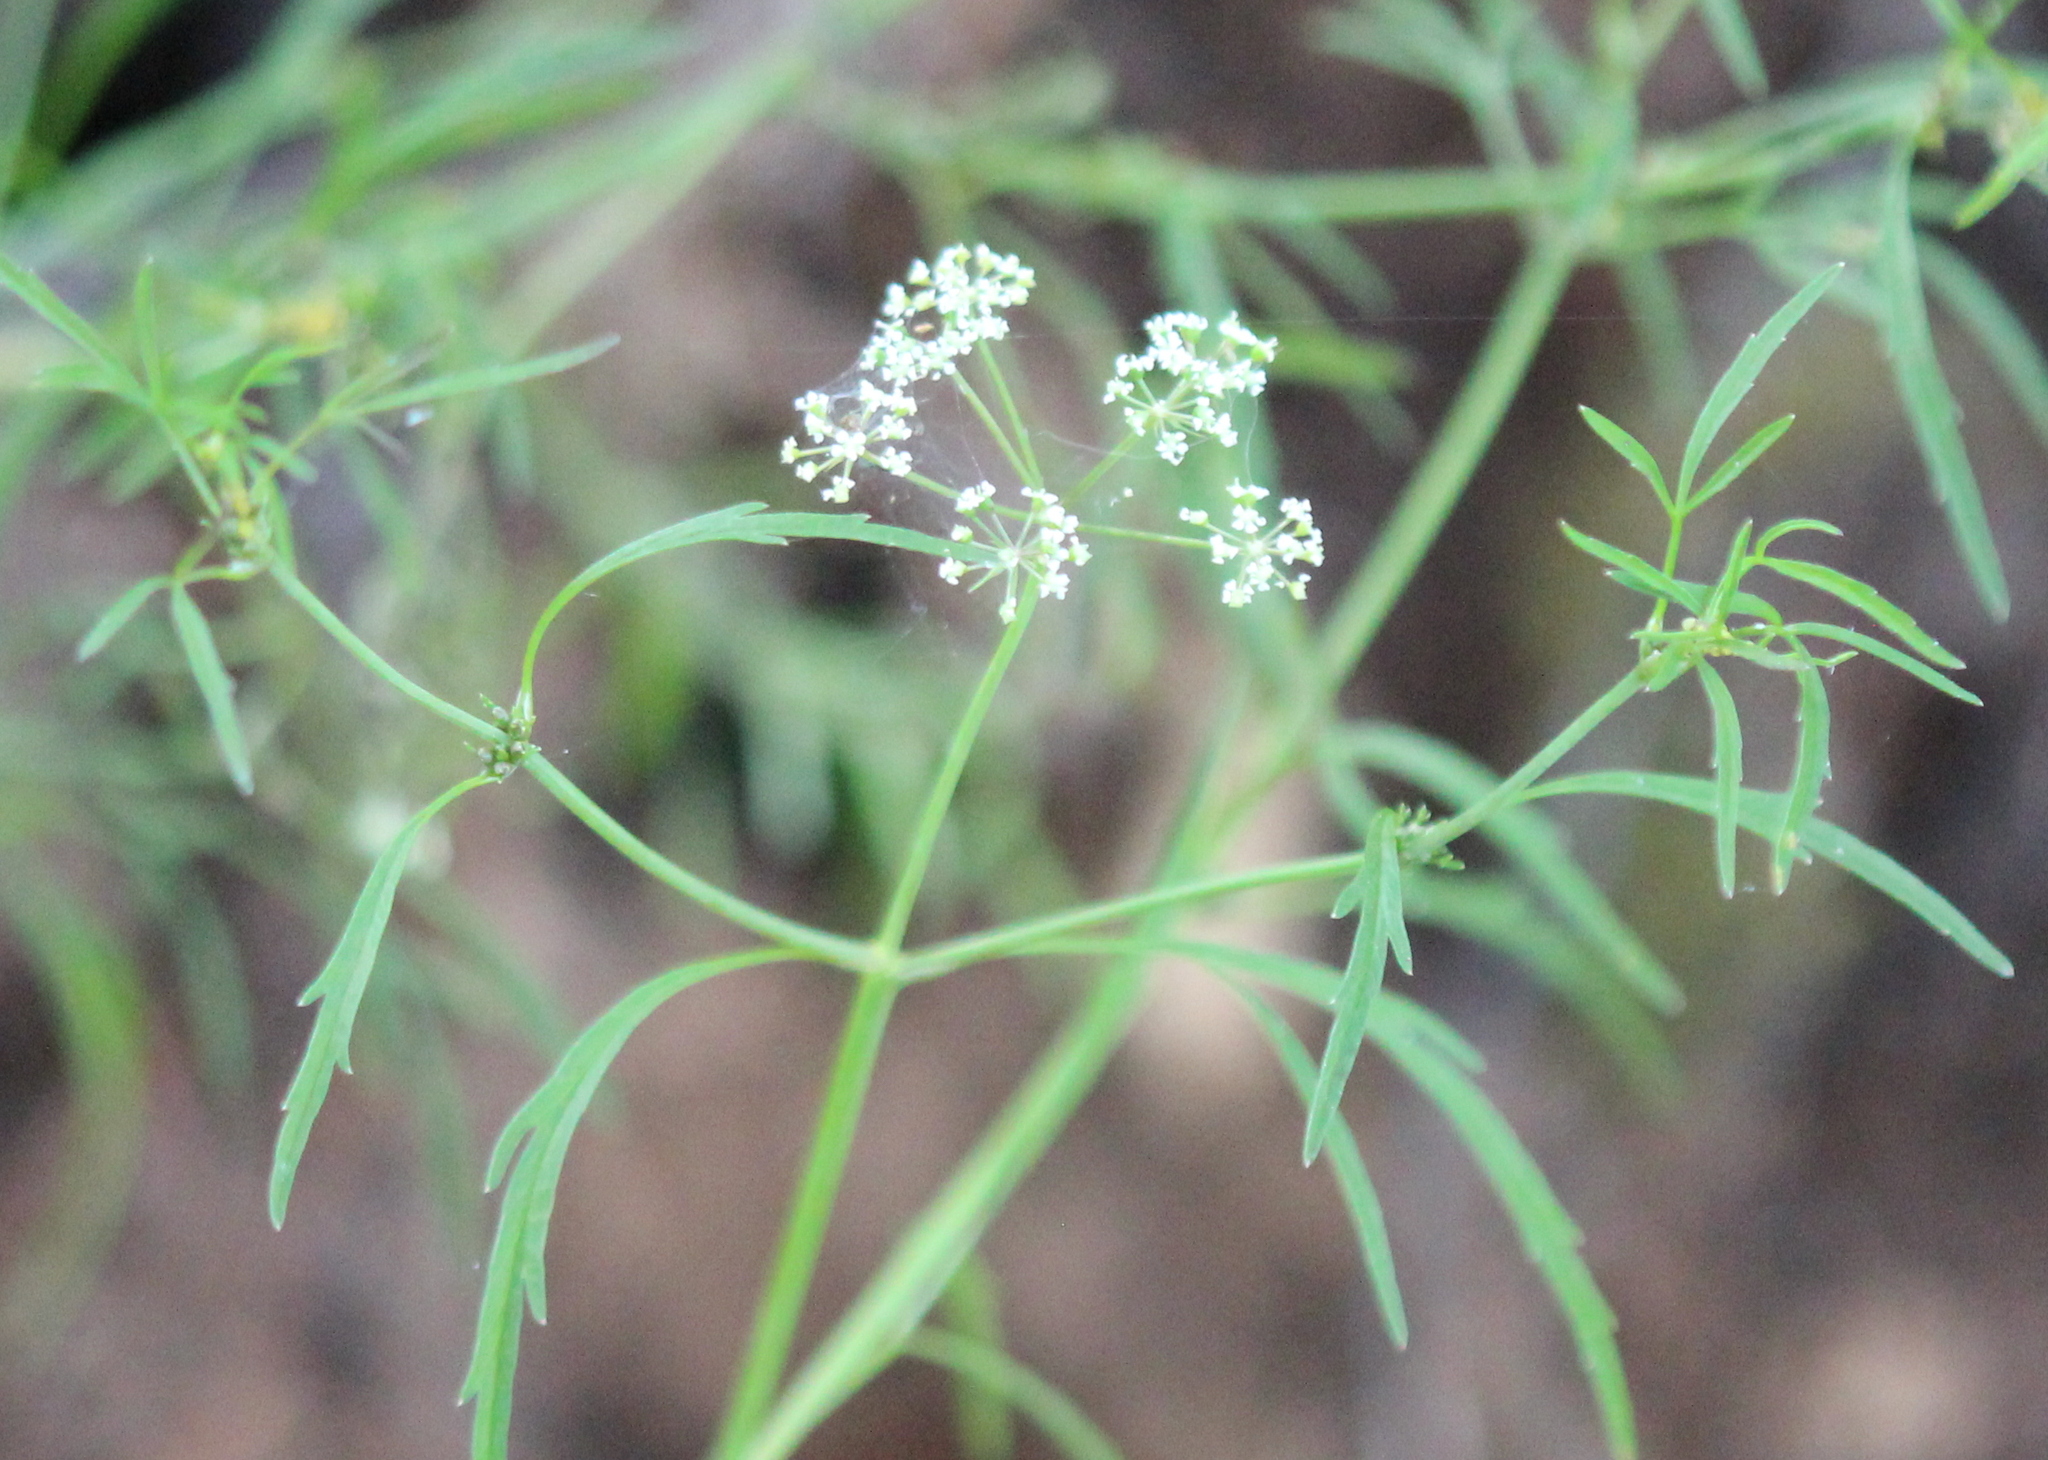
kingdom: Plantae
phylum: Tracheophyta
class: Magnoliopsida
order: Apiales
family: Apiaceae
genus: Cicuta
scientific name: Cicuta bulbifera
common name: Bulb-bearing water-hemlock
